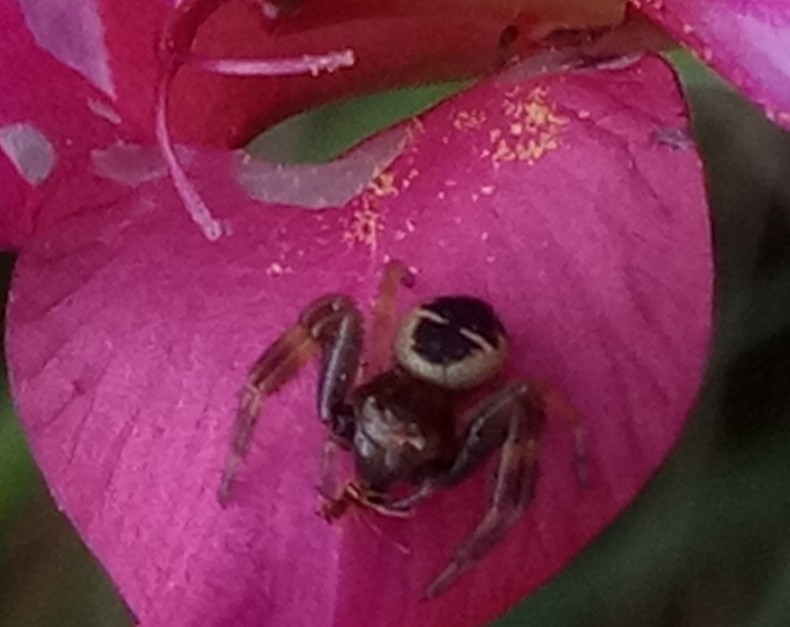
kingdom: Animalia
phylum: Arthropoda
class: Arachnida
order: Araneae
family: Thomisidae
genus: Synema
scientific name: Synema globosum
